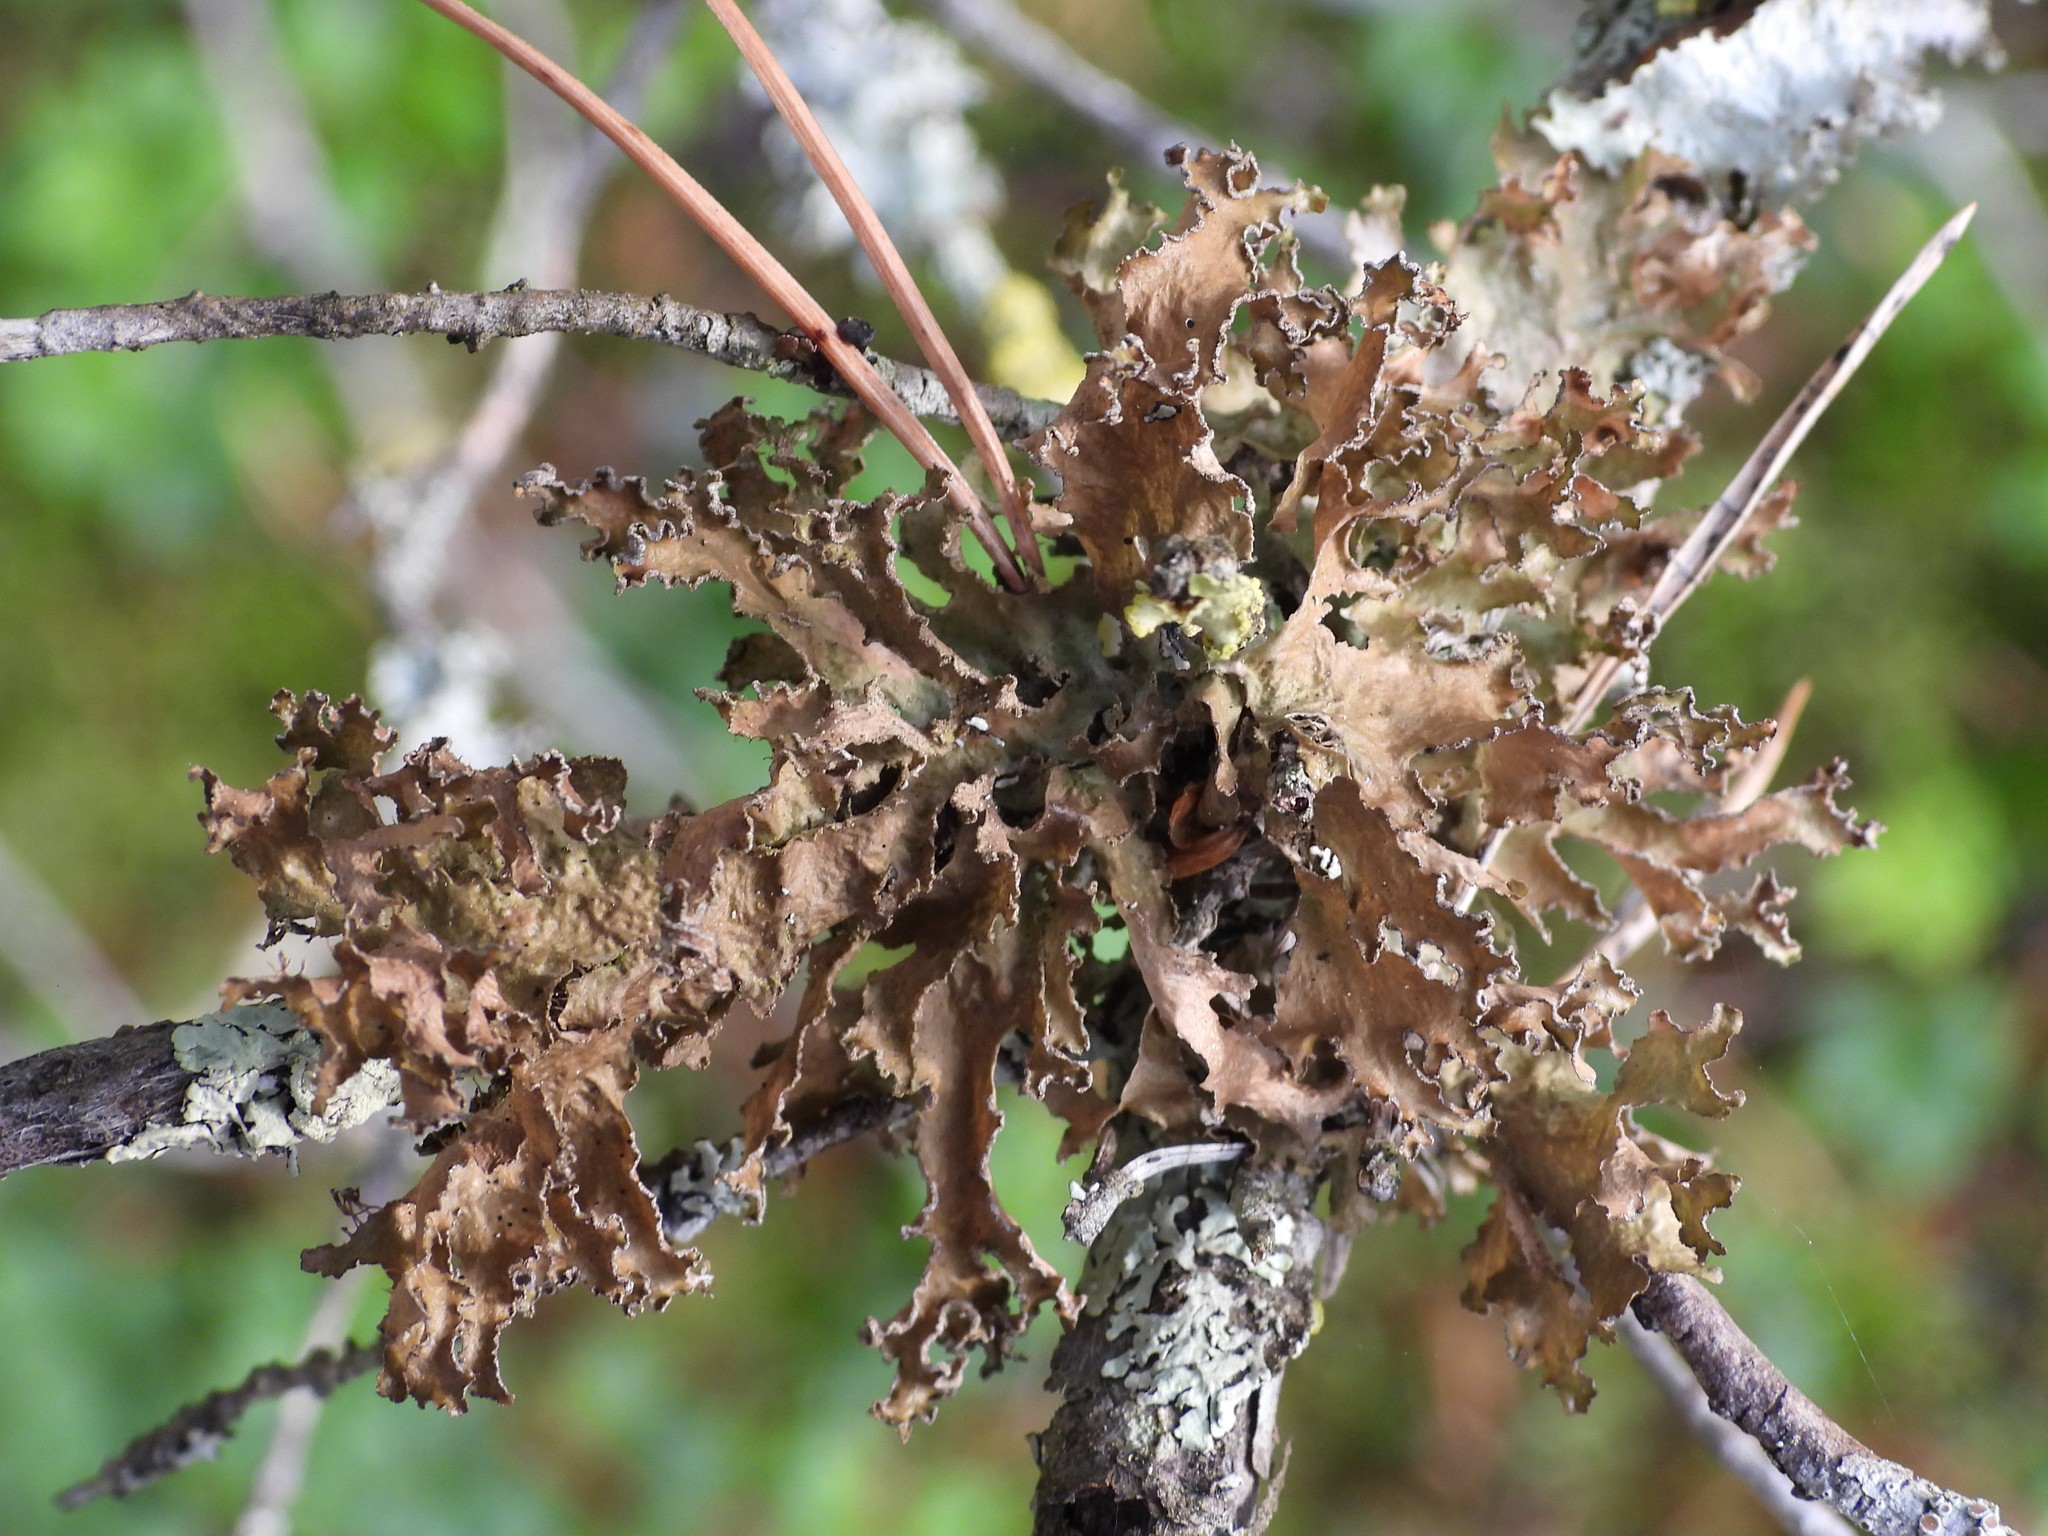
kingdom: Fungi
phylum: Ascomycota
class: Lecanoromycetes
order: Lecanorales
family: Parmeliaceae
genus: Nephromopsis
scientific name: Nephromopsis chlorophylla
